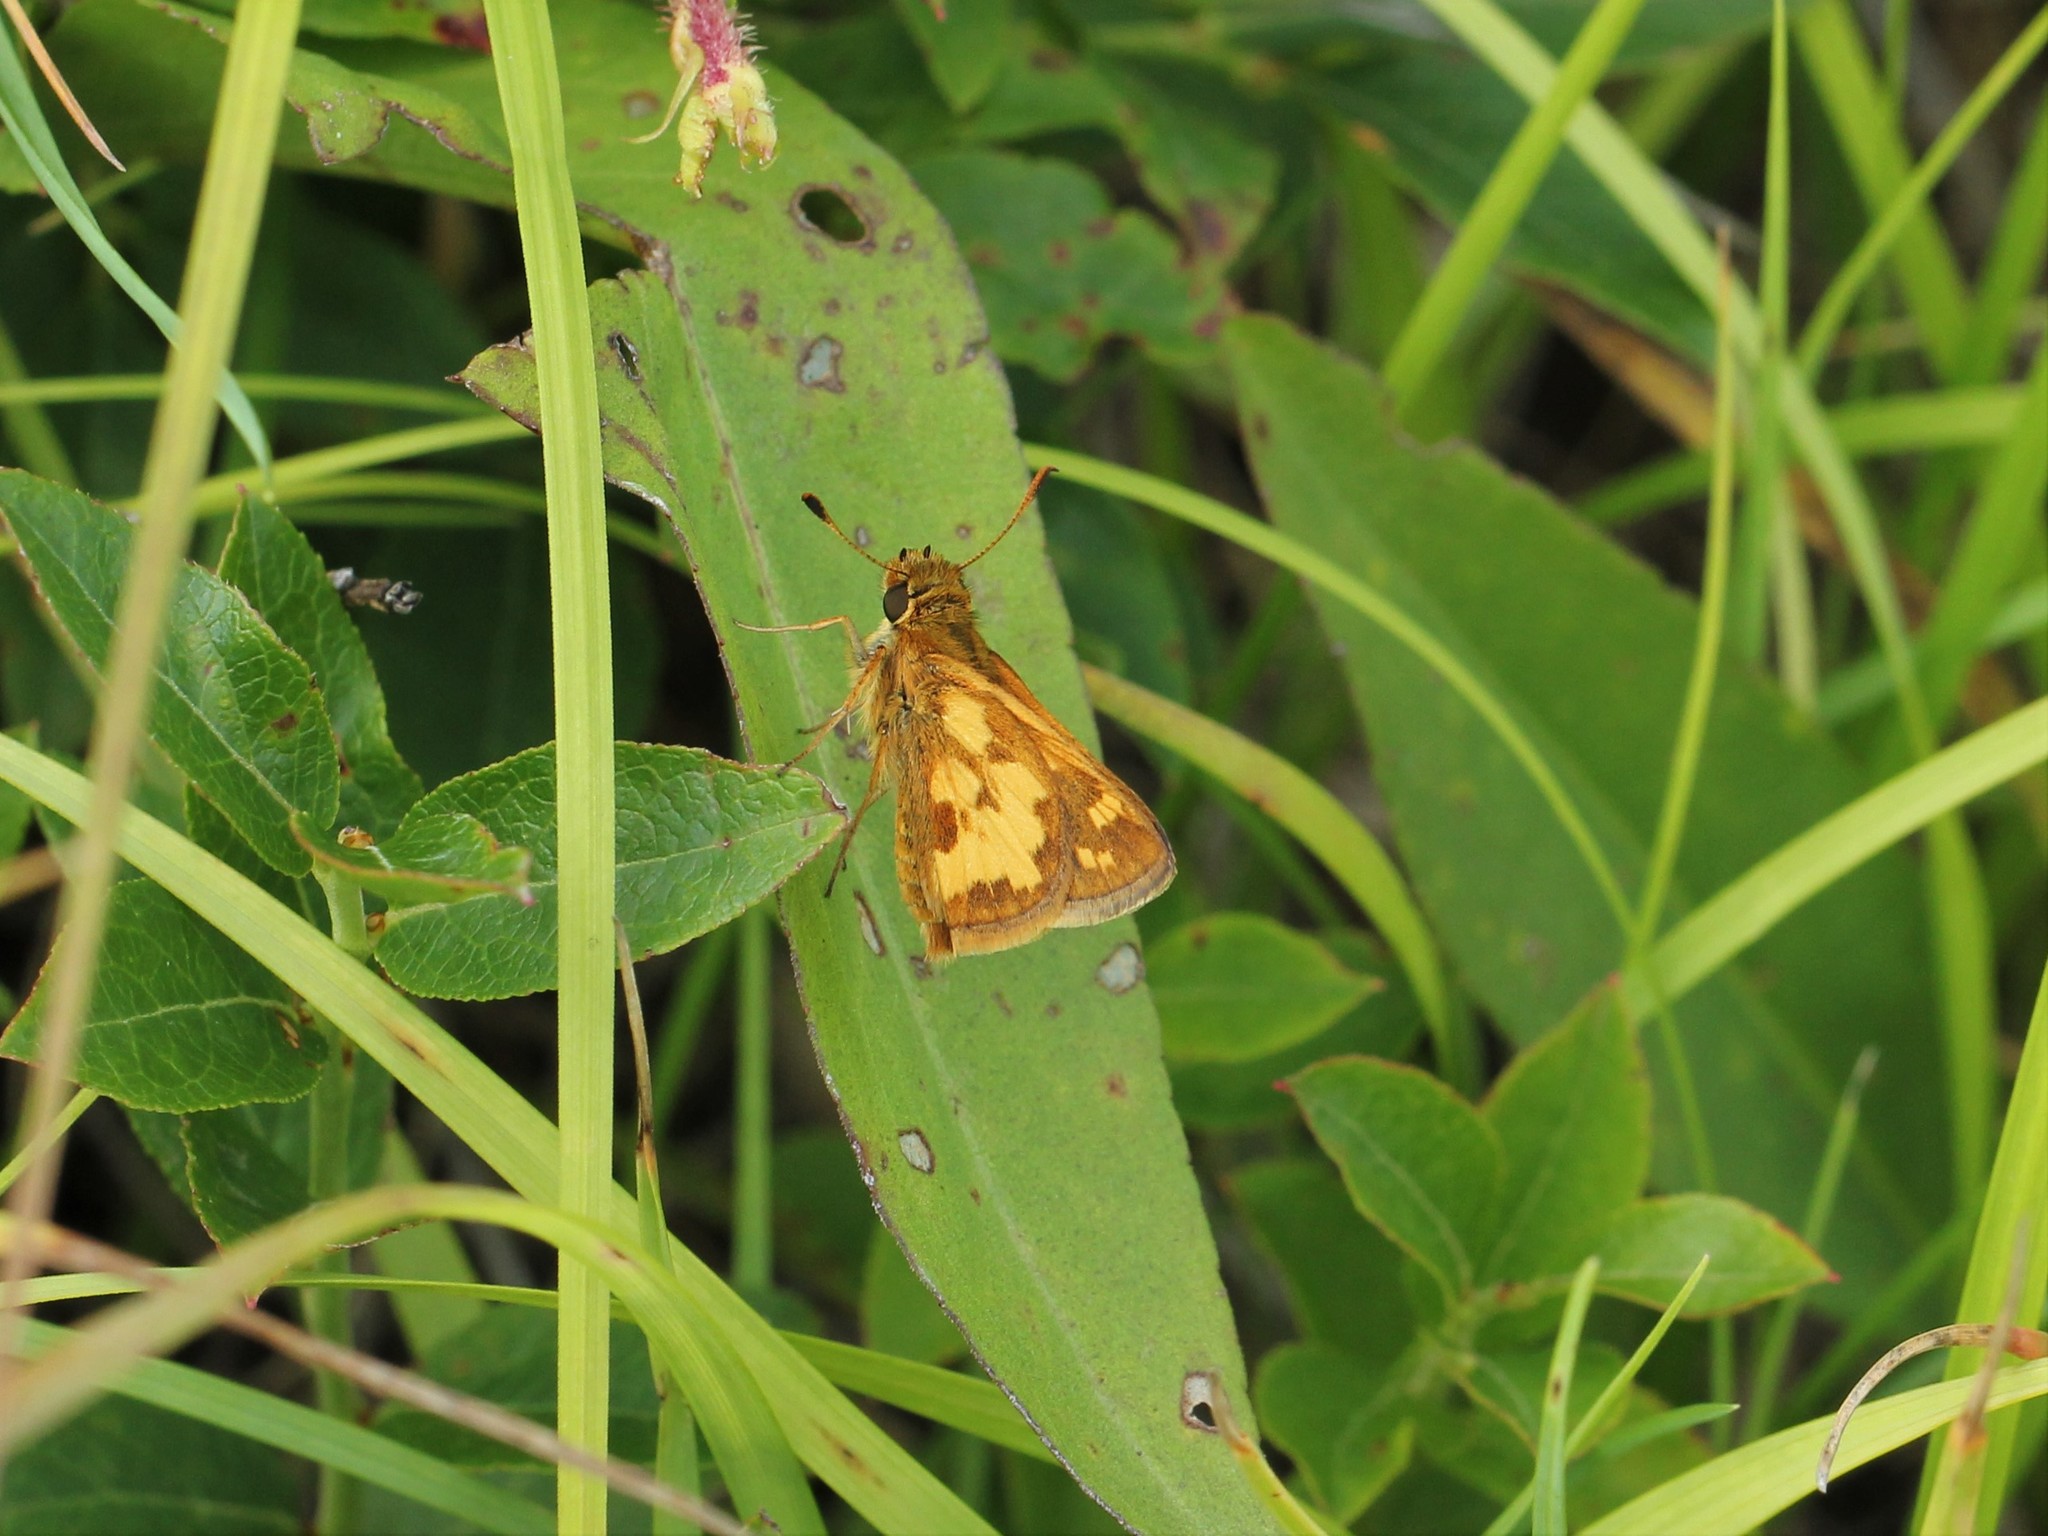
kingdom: Animalia
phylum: Arthropoda
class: Insecta
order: Lepidoptera
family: Hesperiidae
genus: Polites
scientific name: Polites coras
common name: Peck's skipper
